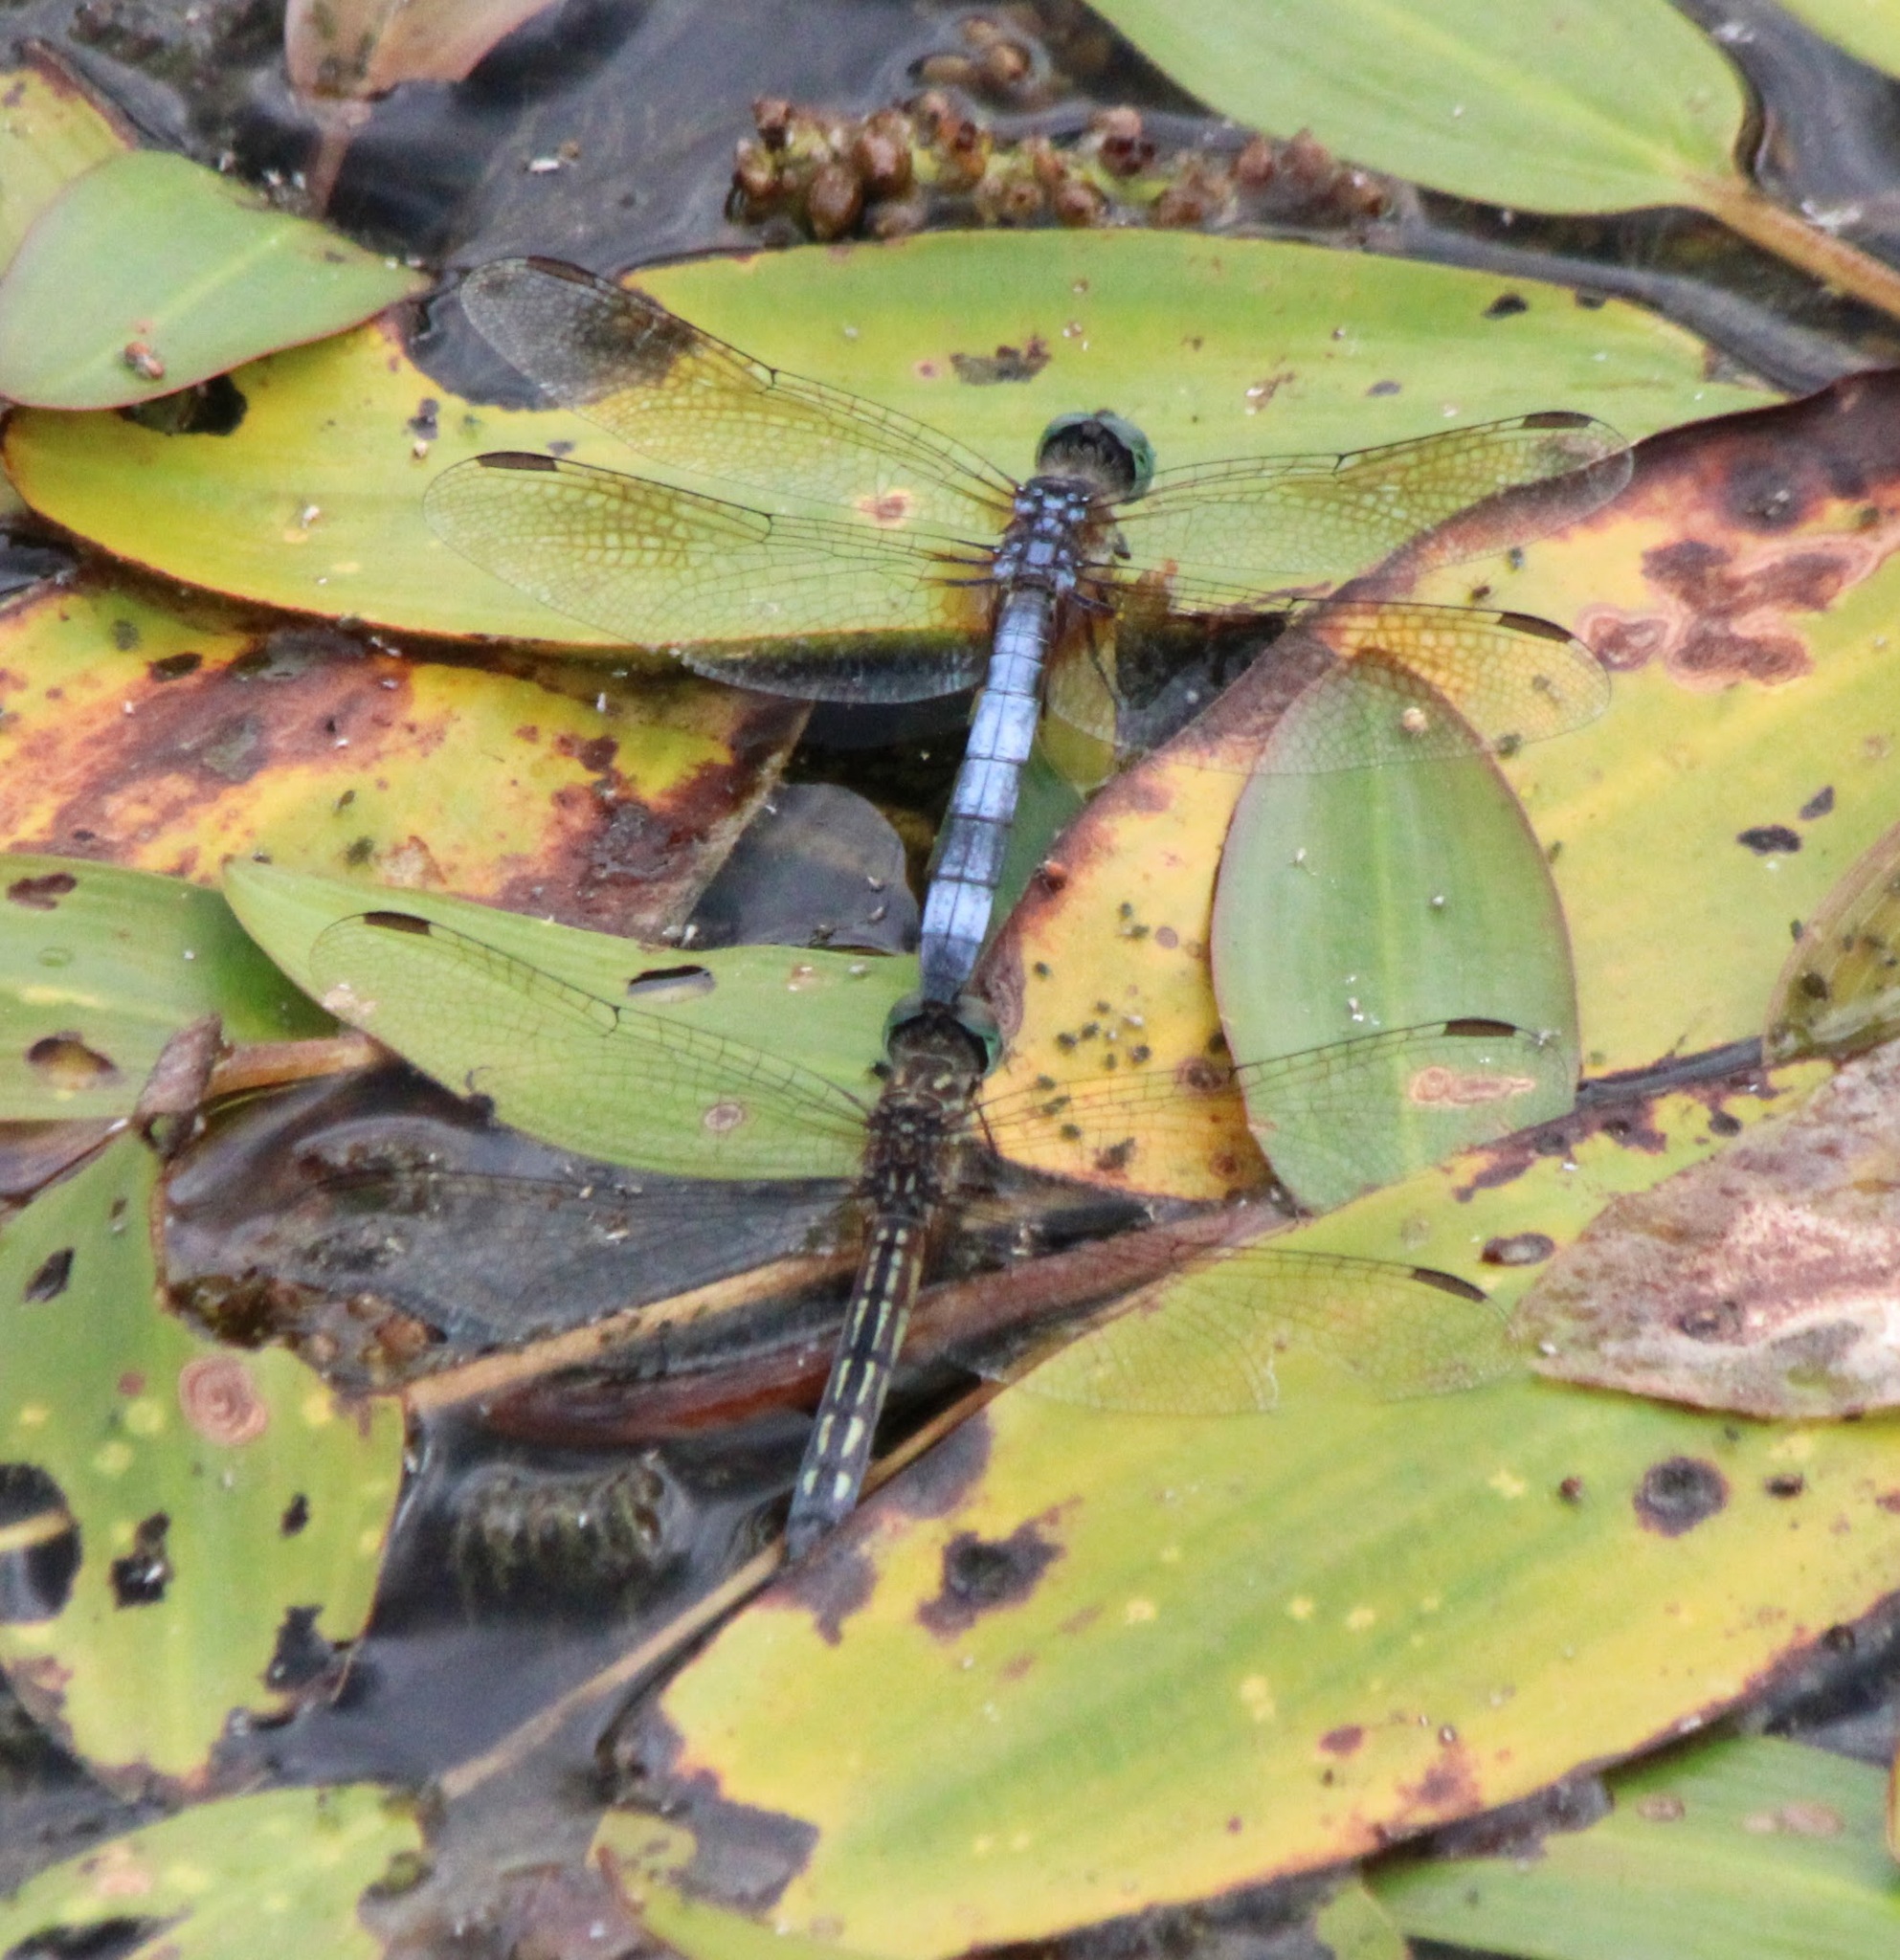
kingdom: Animalia
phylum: Arthropoda
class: Insecta
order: Odonata
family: Libellulidae
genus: Pachydiplax
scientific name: Pachydiplax longipennis
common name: Blue dasher
